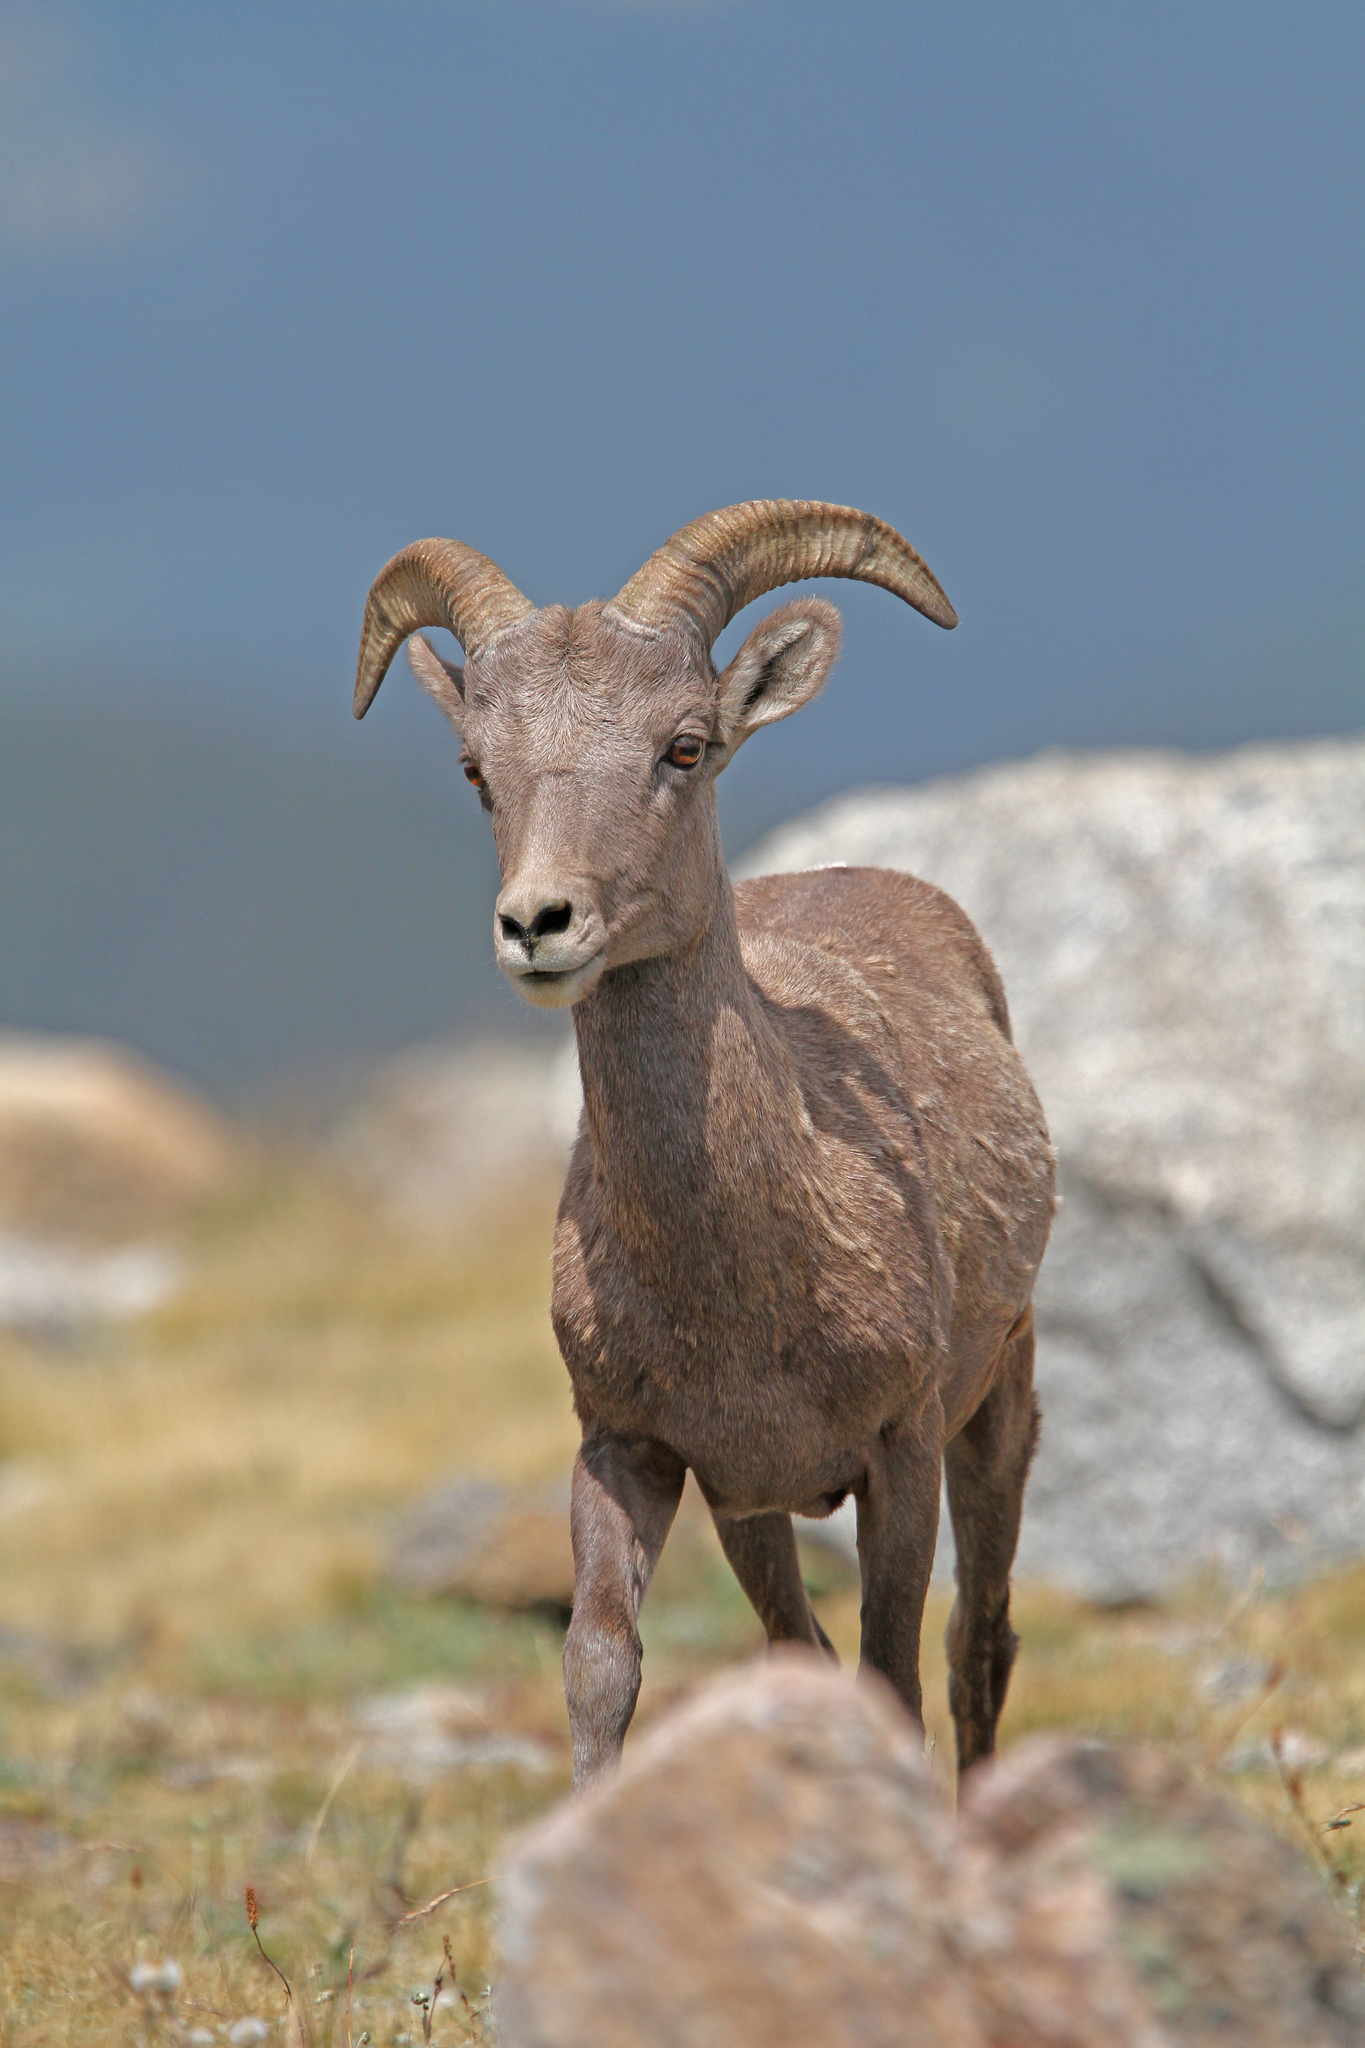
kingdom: Animalia
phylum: Chordata
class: Mammalia
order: Artiodactyla
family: Bovidae
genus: Ovis
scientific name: Ovis canadensis
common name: Bighorn sheep
